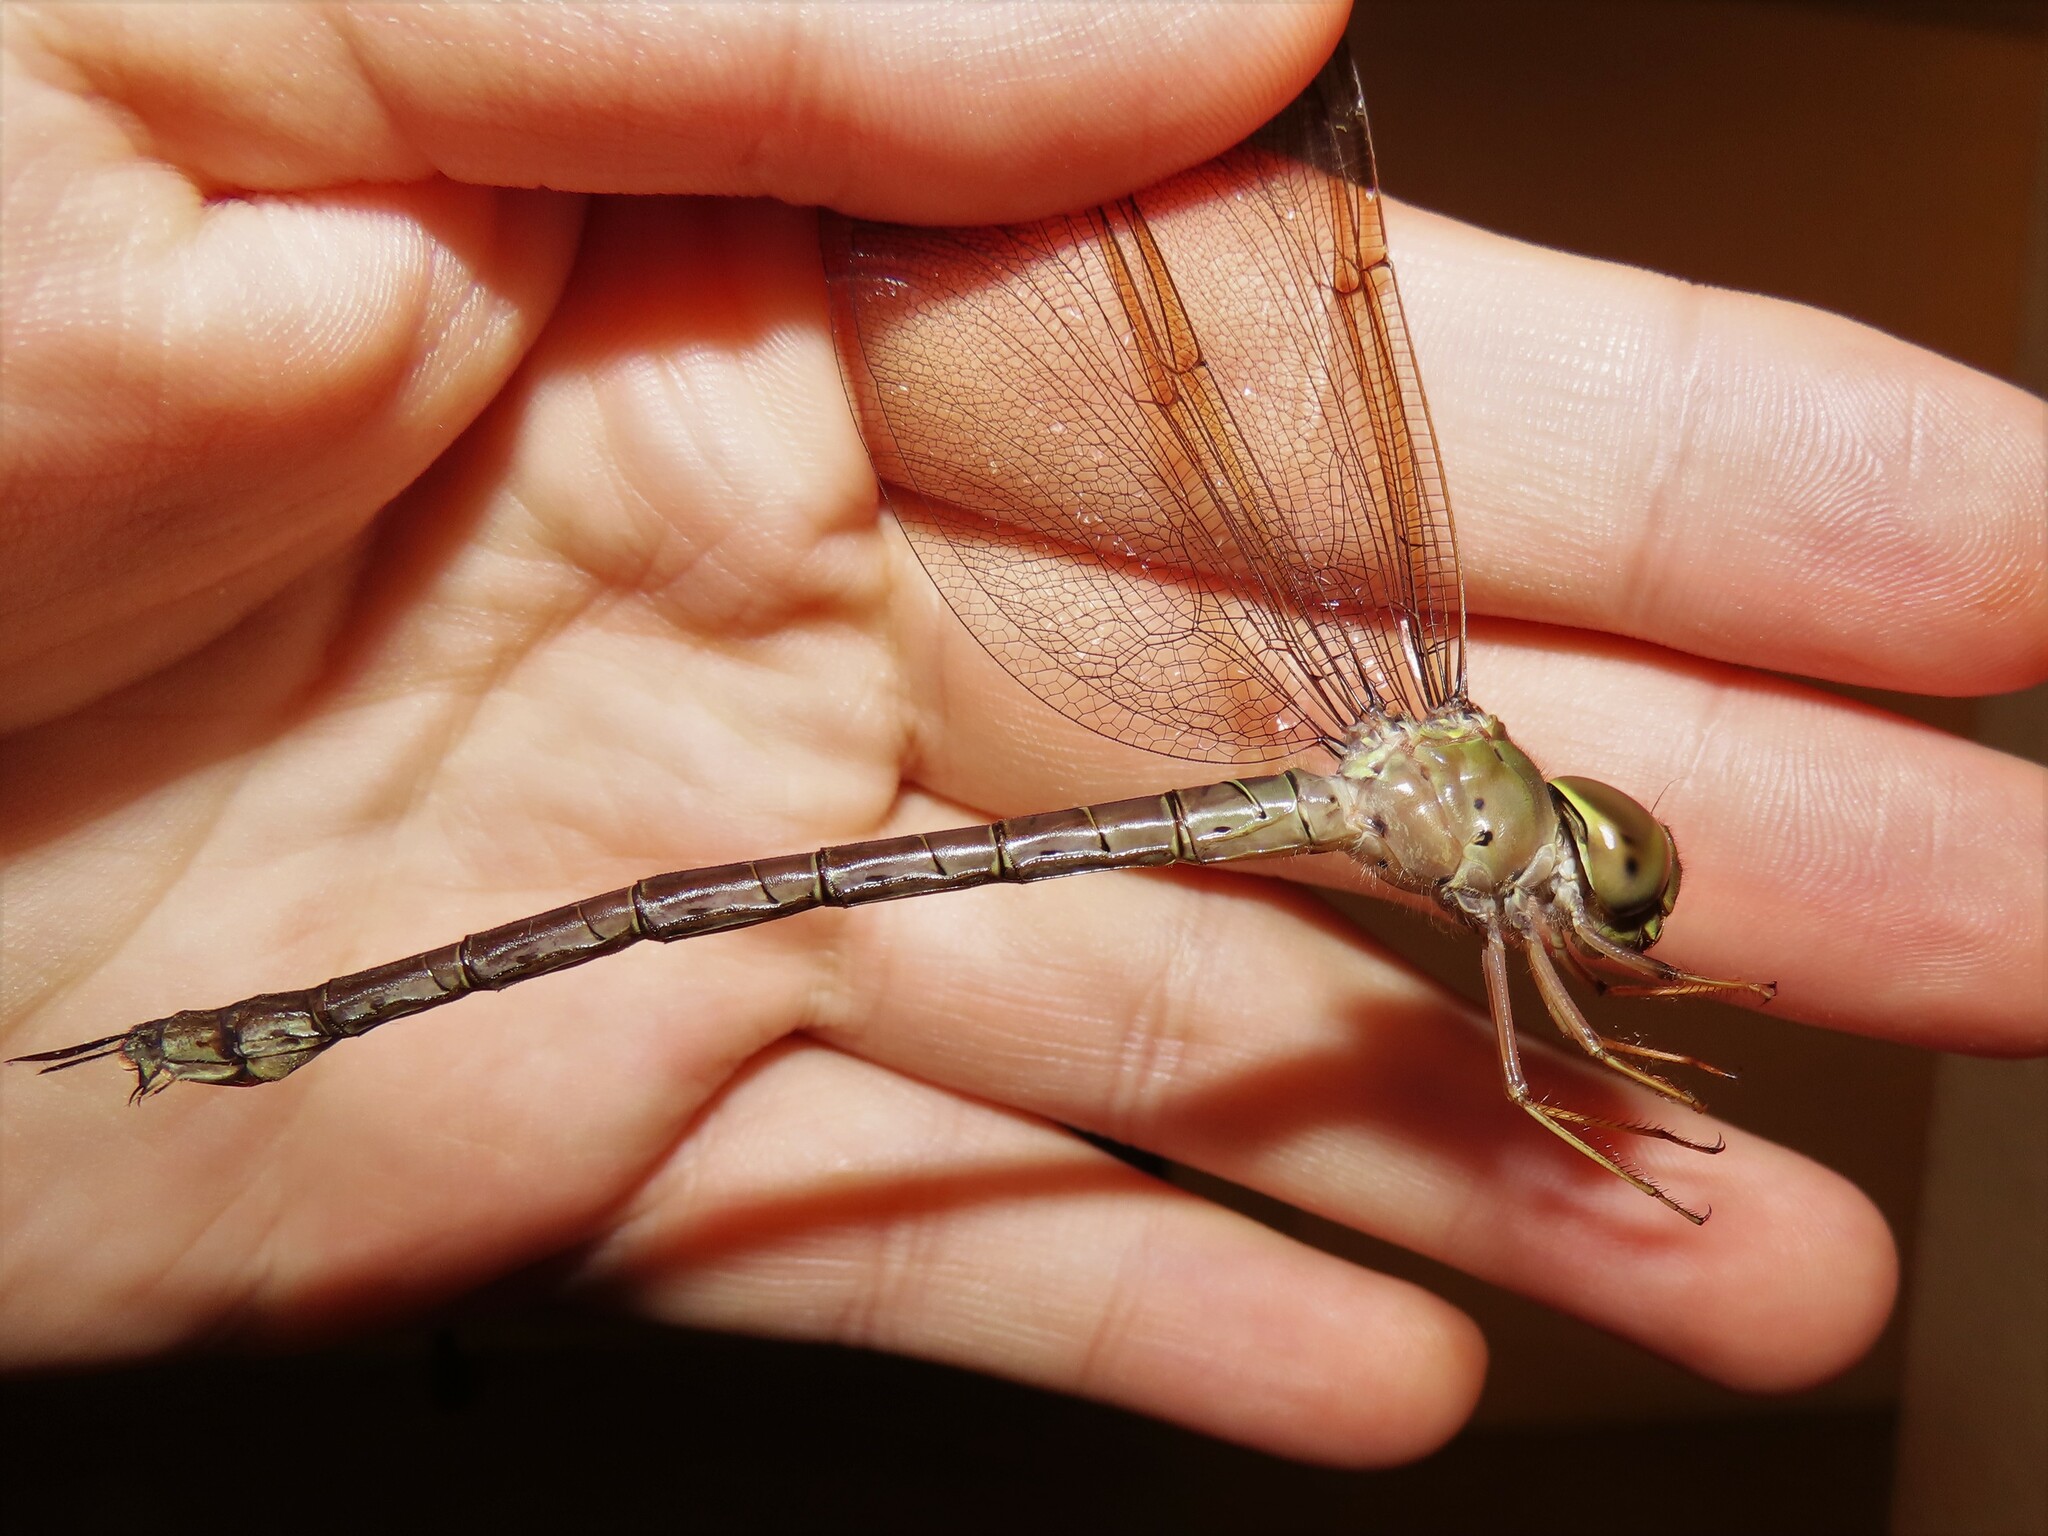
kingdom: Animalia
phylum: Arthropoda
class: Insecta
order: Odonata
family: Aeshnidae
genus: Gynacantha
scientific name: Gynacantha nervosa
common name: Twilight darner
